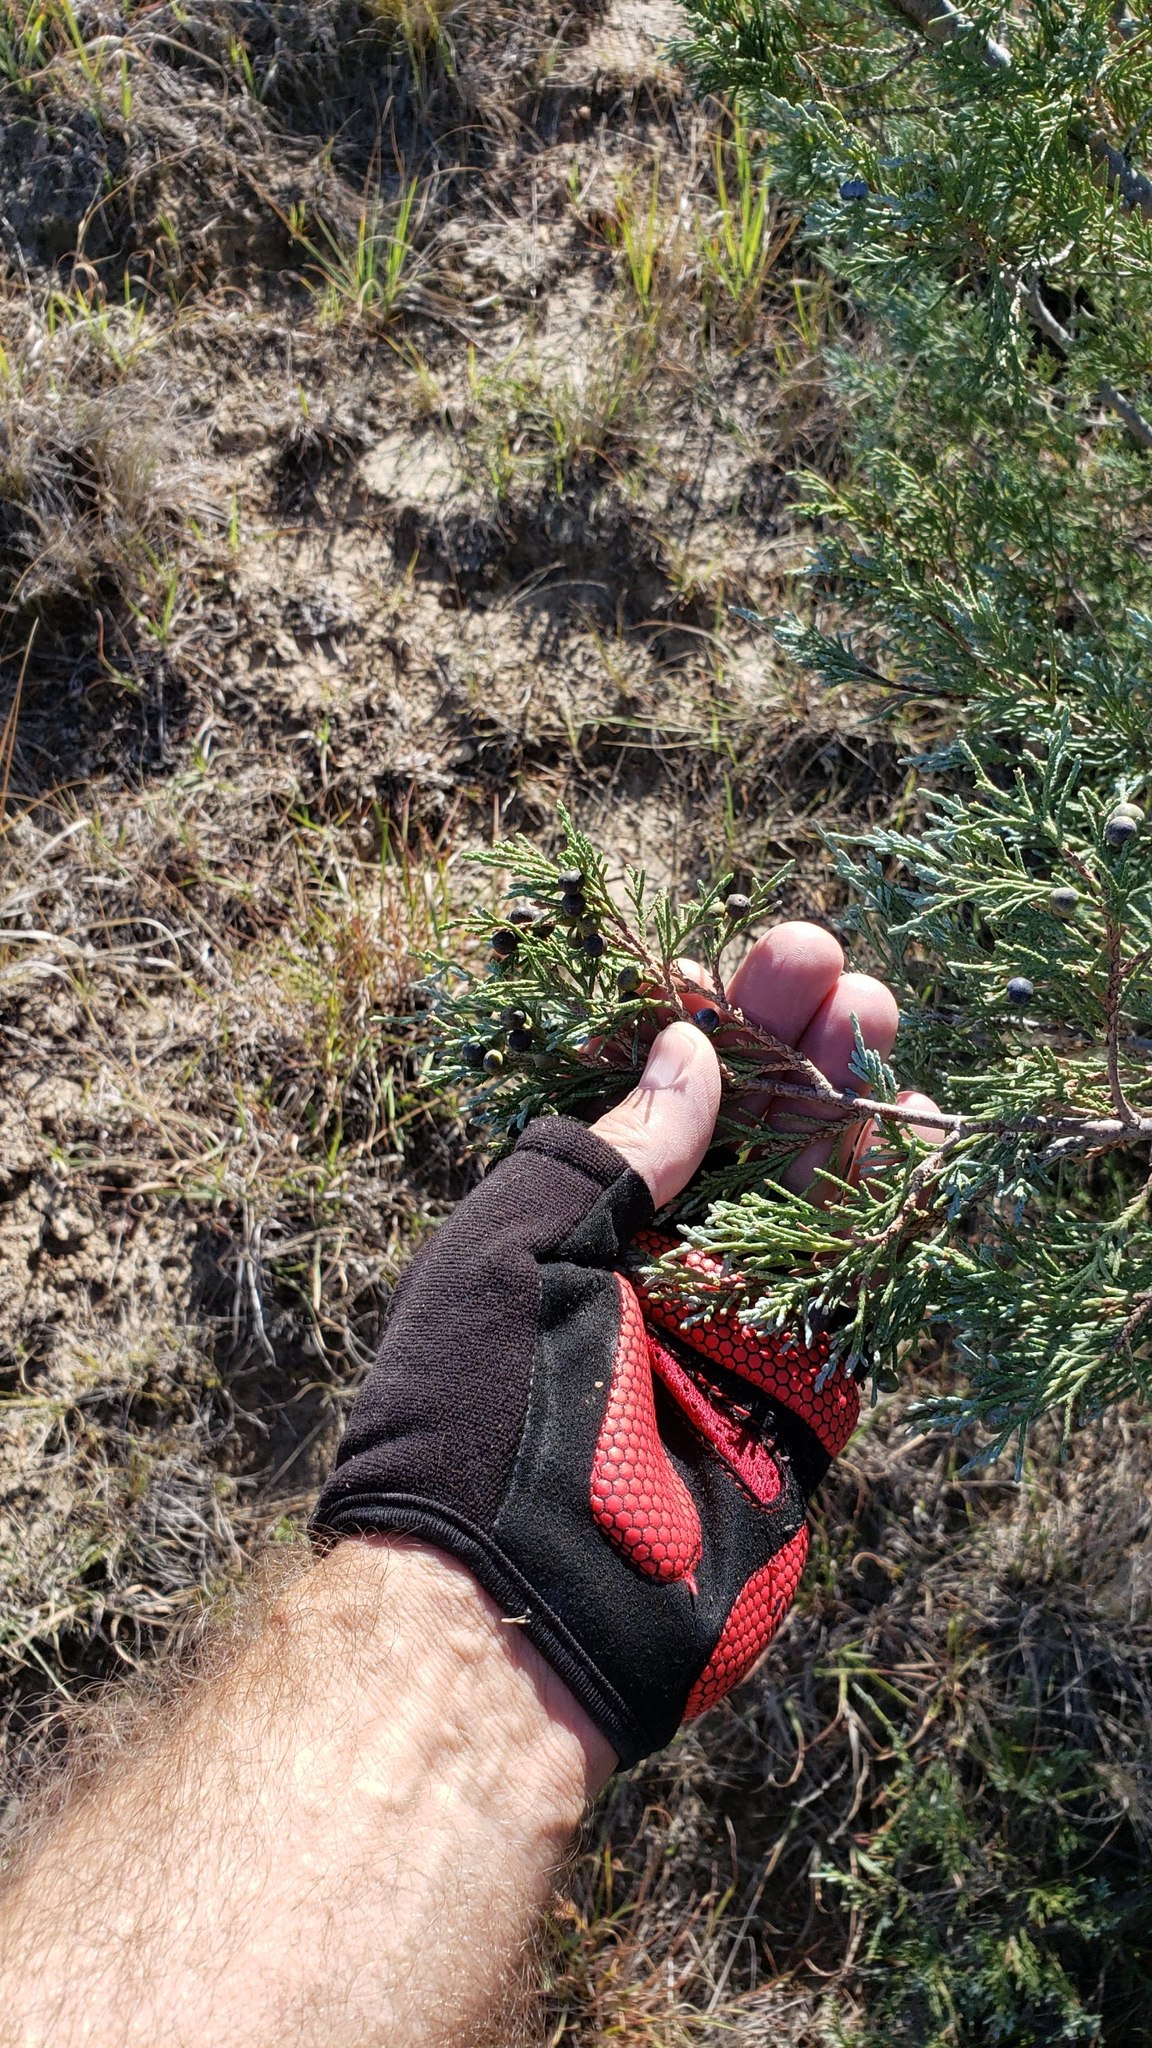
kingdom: Plantae
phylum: Tracheophyta
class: Pinopsida
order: Pinales
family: Cupressaceae
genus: Juniperus
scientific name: Juniperus scopulorum
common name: Rocky mountain juniper
